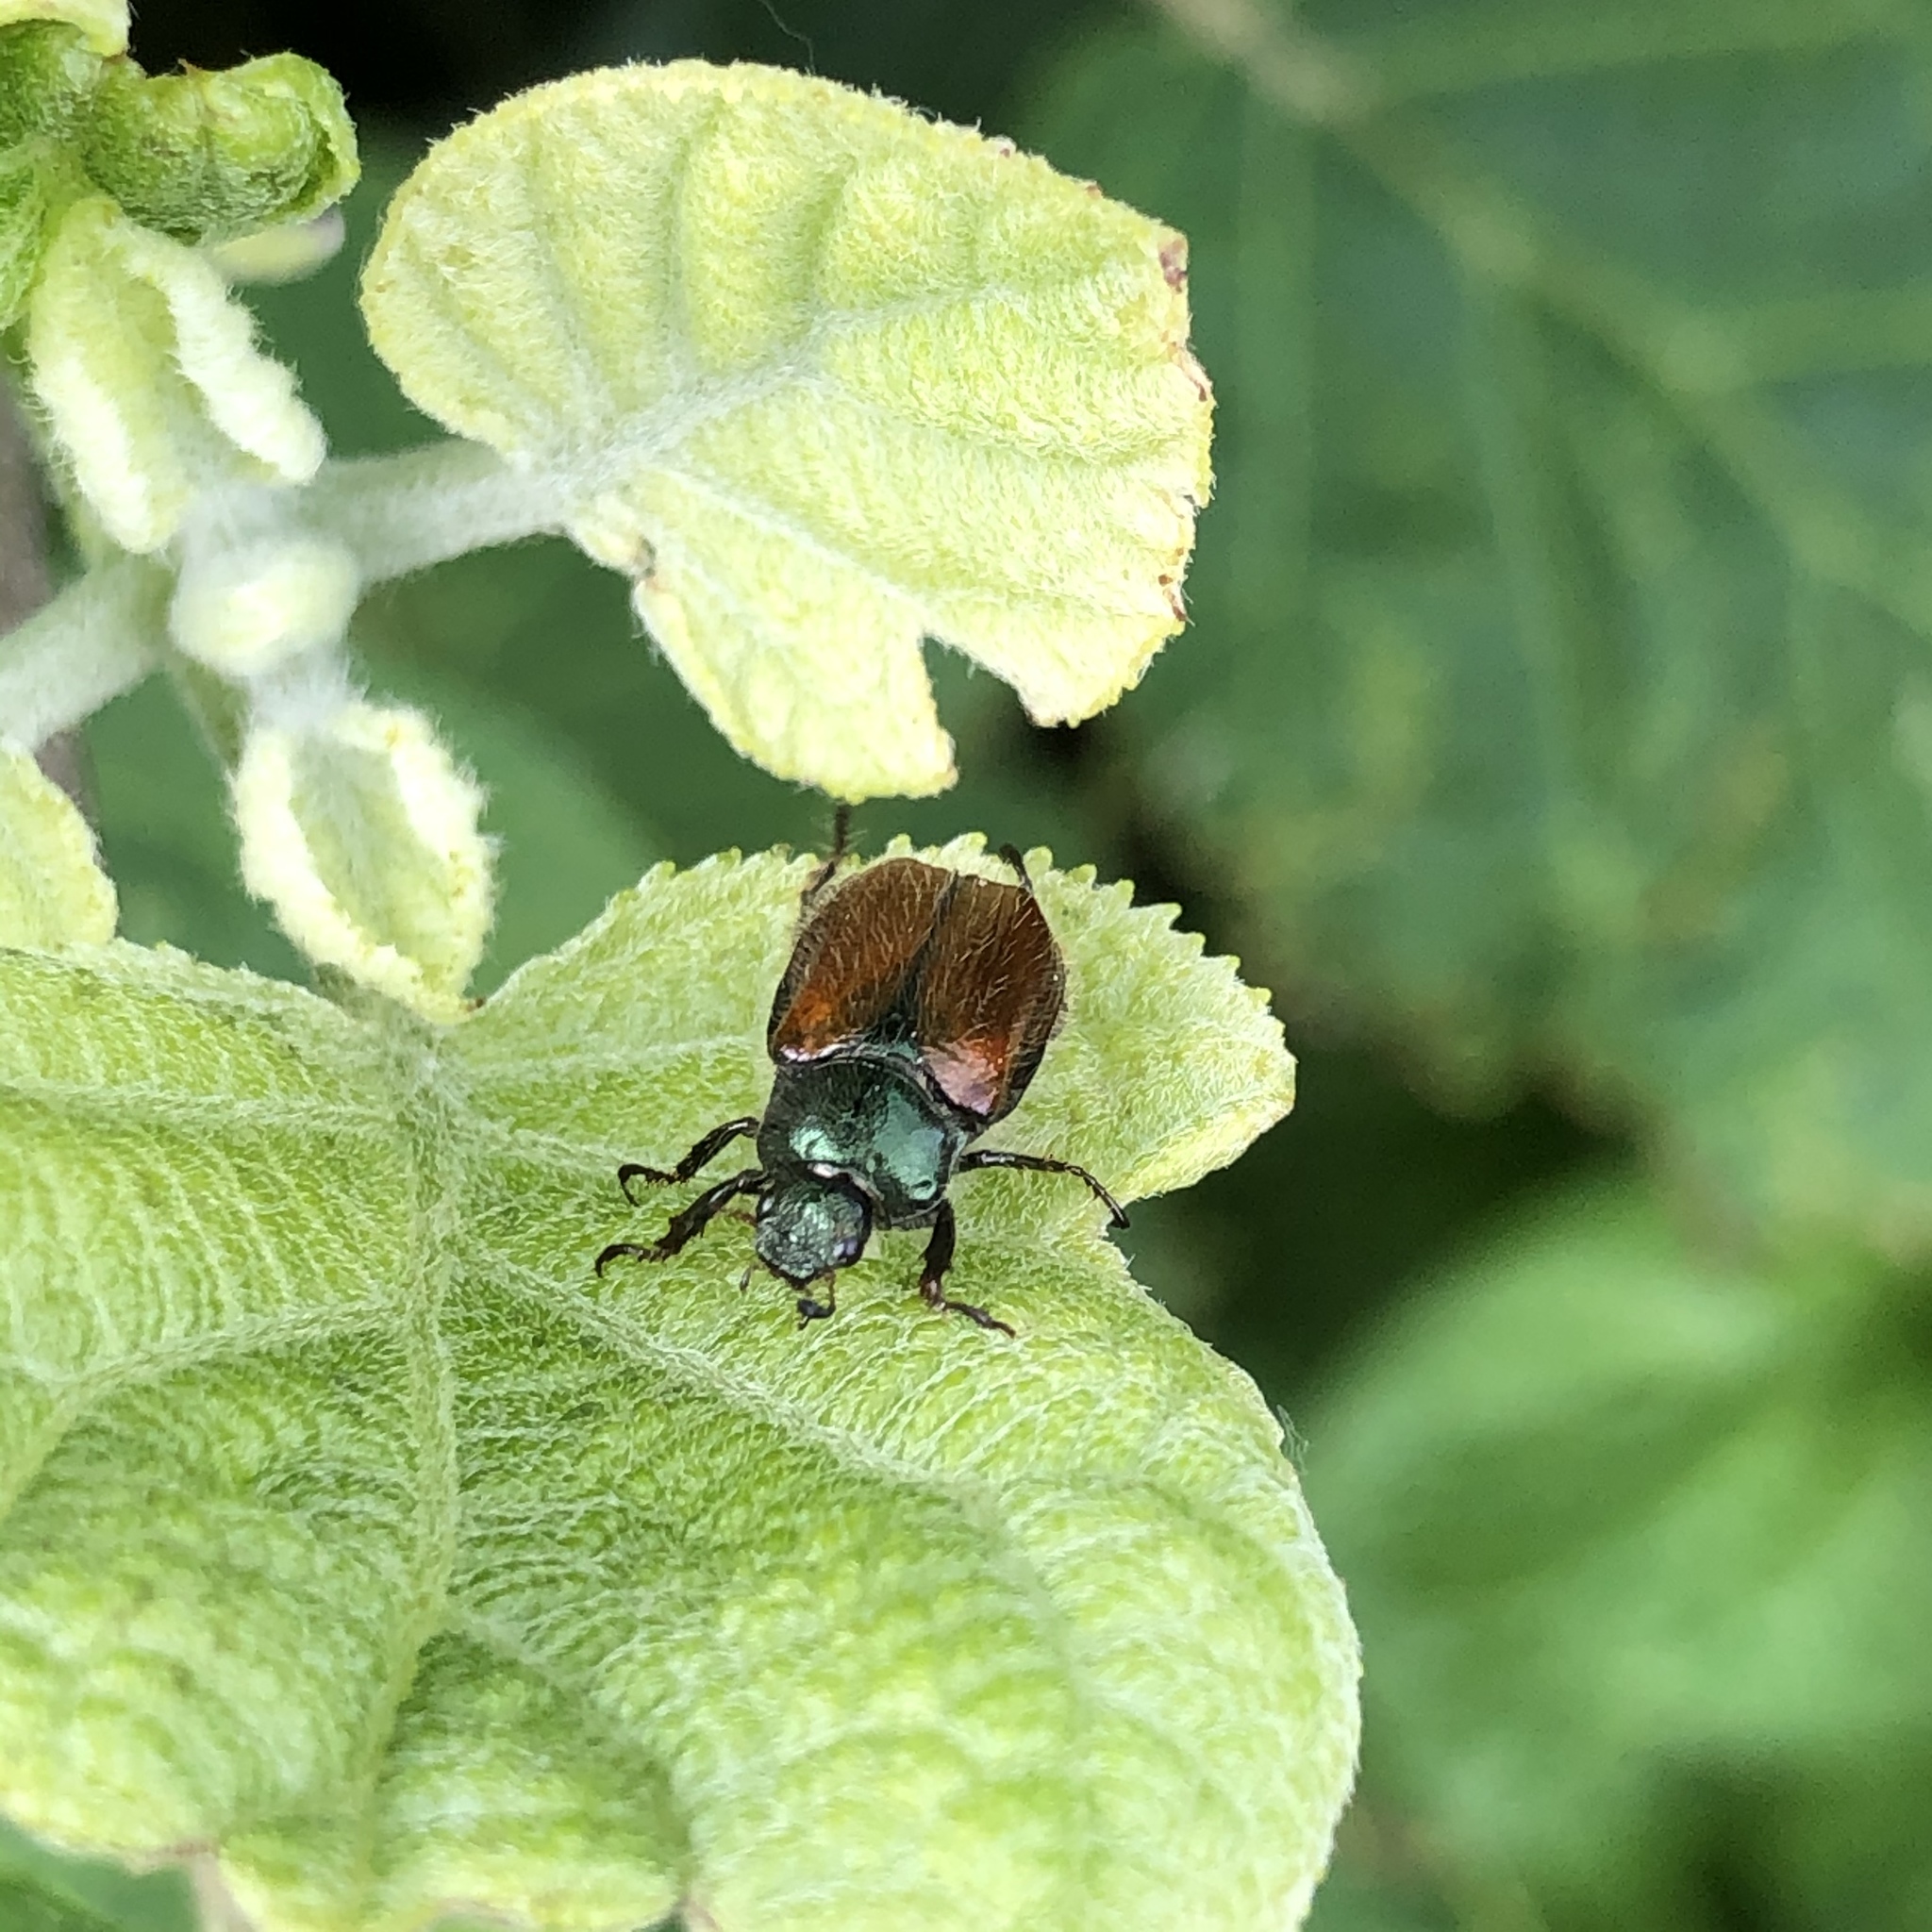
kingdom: Animalia
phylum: Arthropoda
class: Insecta
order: Coleoptera
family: Scarabaeidae
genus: Phyllopertha
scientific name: Phyllopertha horticola
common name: Garden chafer
